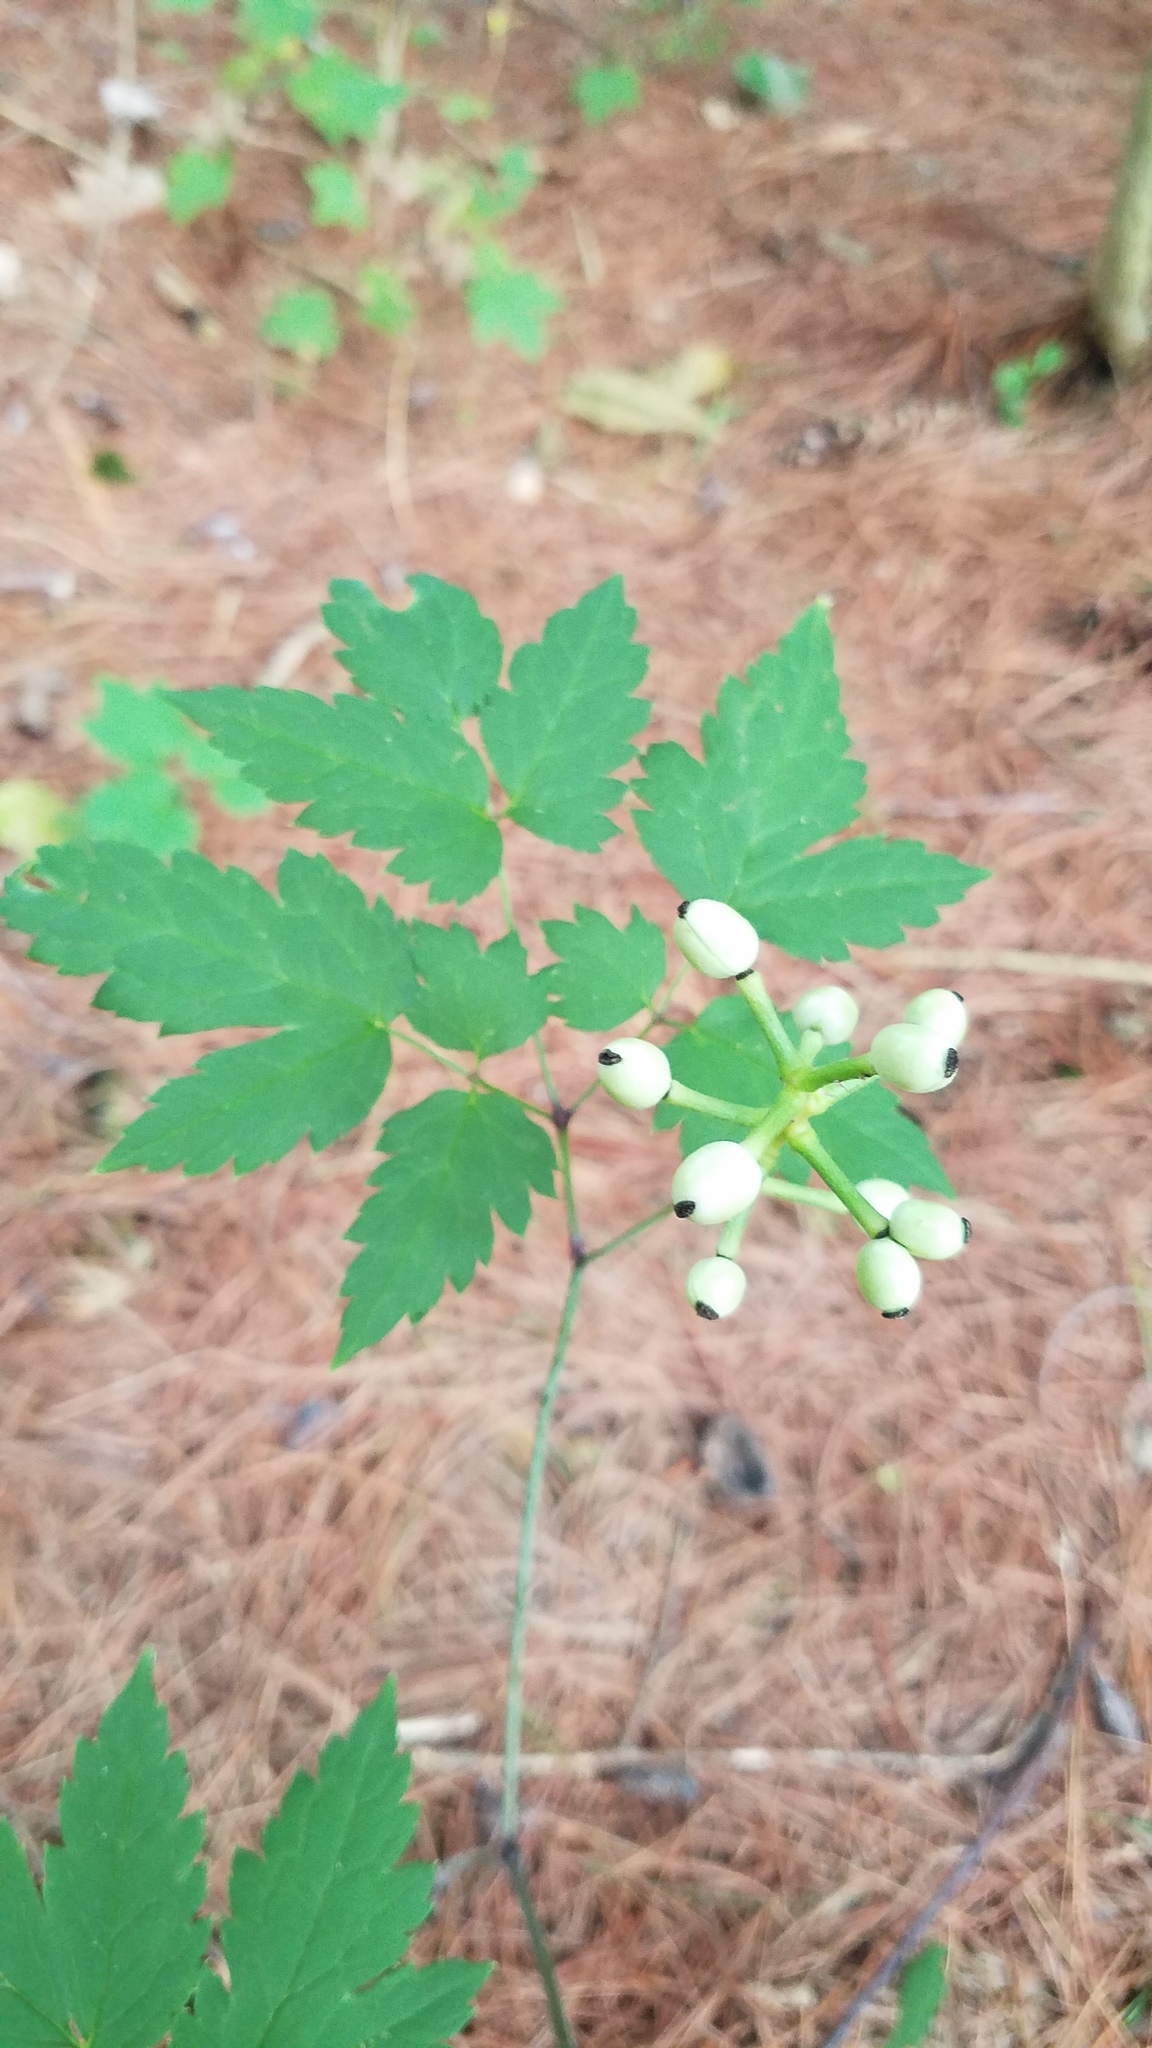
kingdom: Plantae
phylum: Tracheophyta
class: Magnoliopsida
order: Ranunculales
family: Ranunculaceae
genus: Actaea
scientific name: Actaea pachypoda
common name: Doll's-eyes
